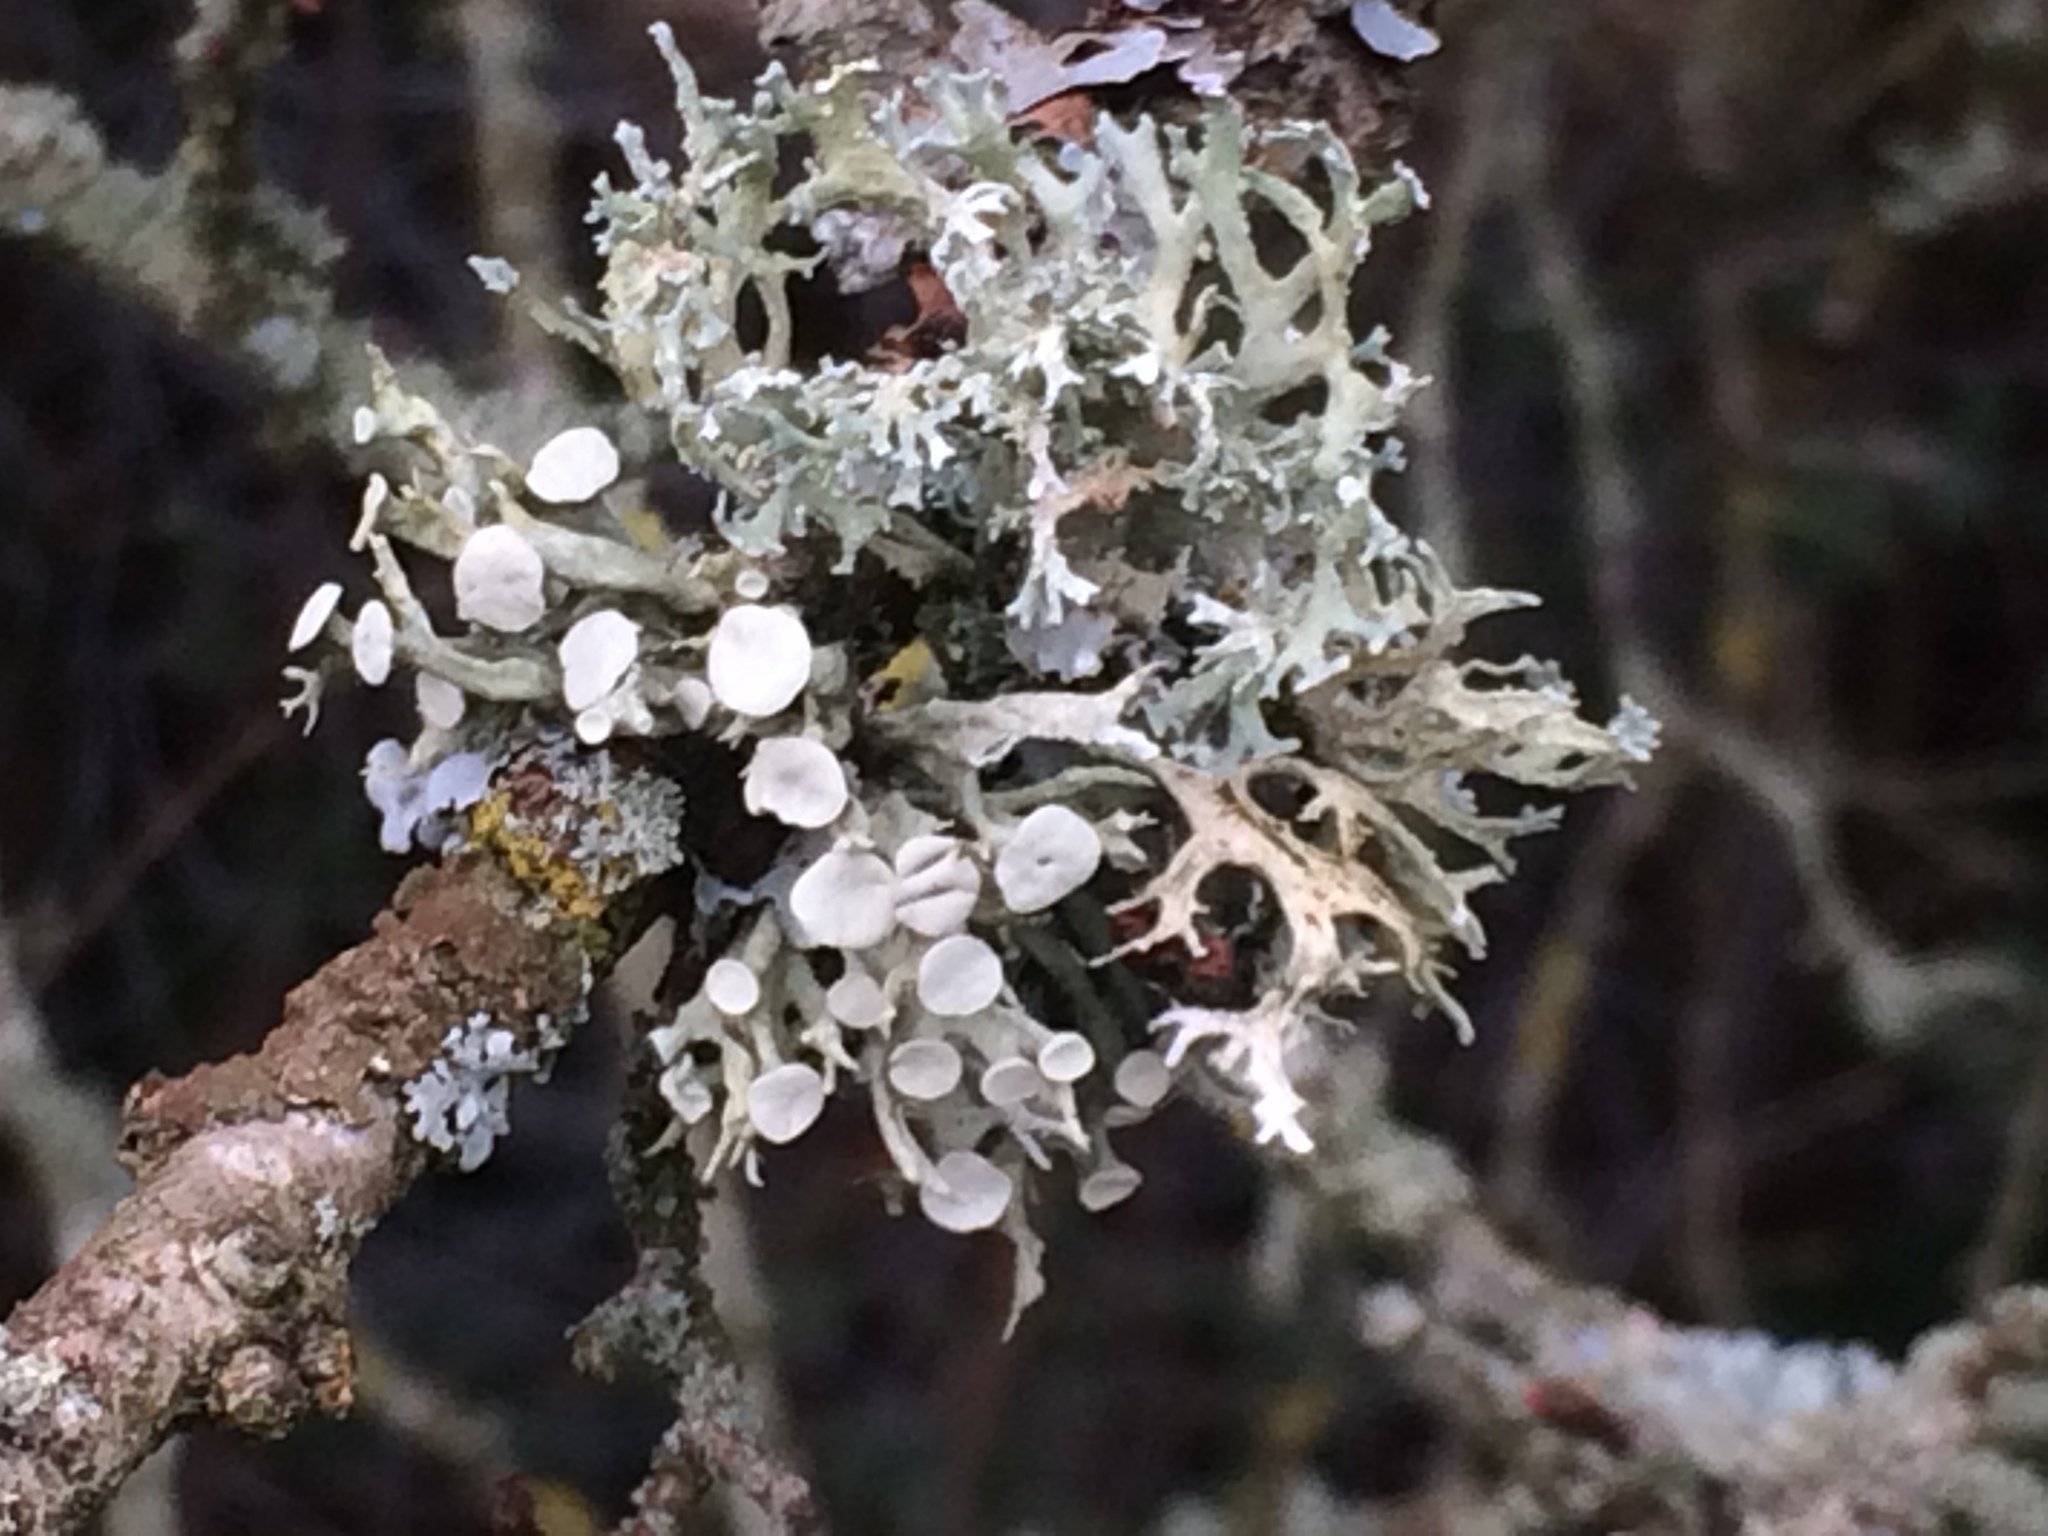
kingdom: Fungi
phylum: Ascomycota
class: Lecanoromycetes
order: Lecanorales
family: Ramalinaceae
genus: Ramalina
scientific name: Ramalina fastigiata
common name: Dotted ribbon lichen
